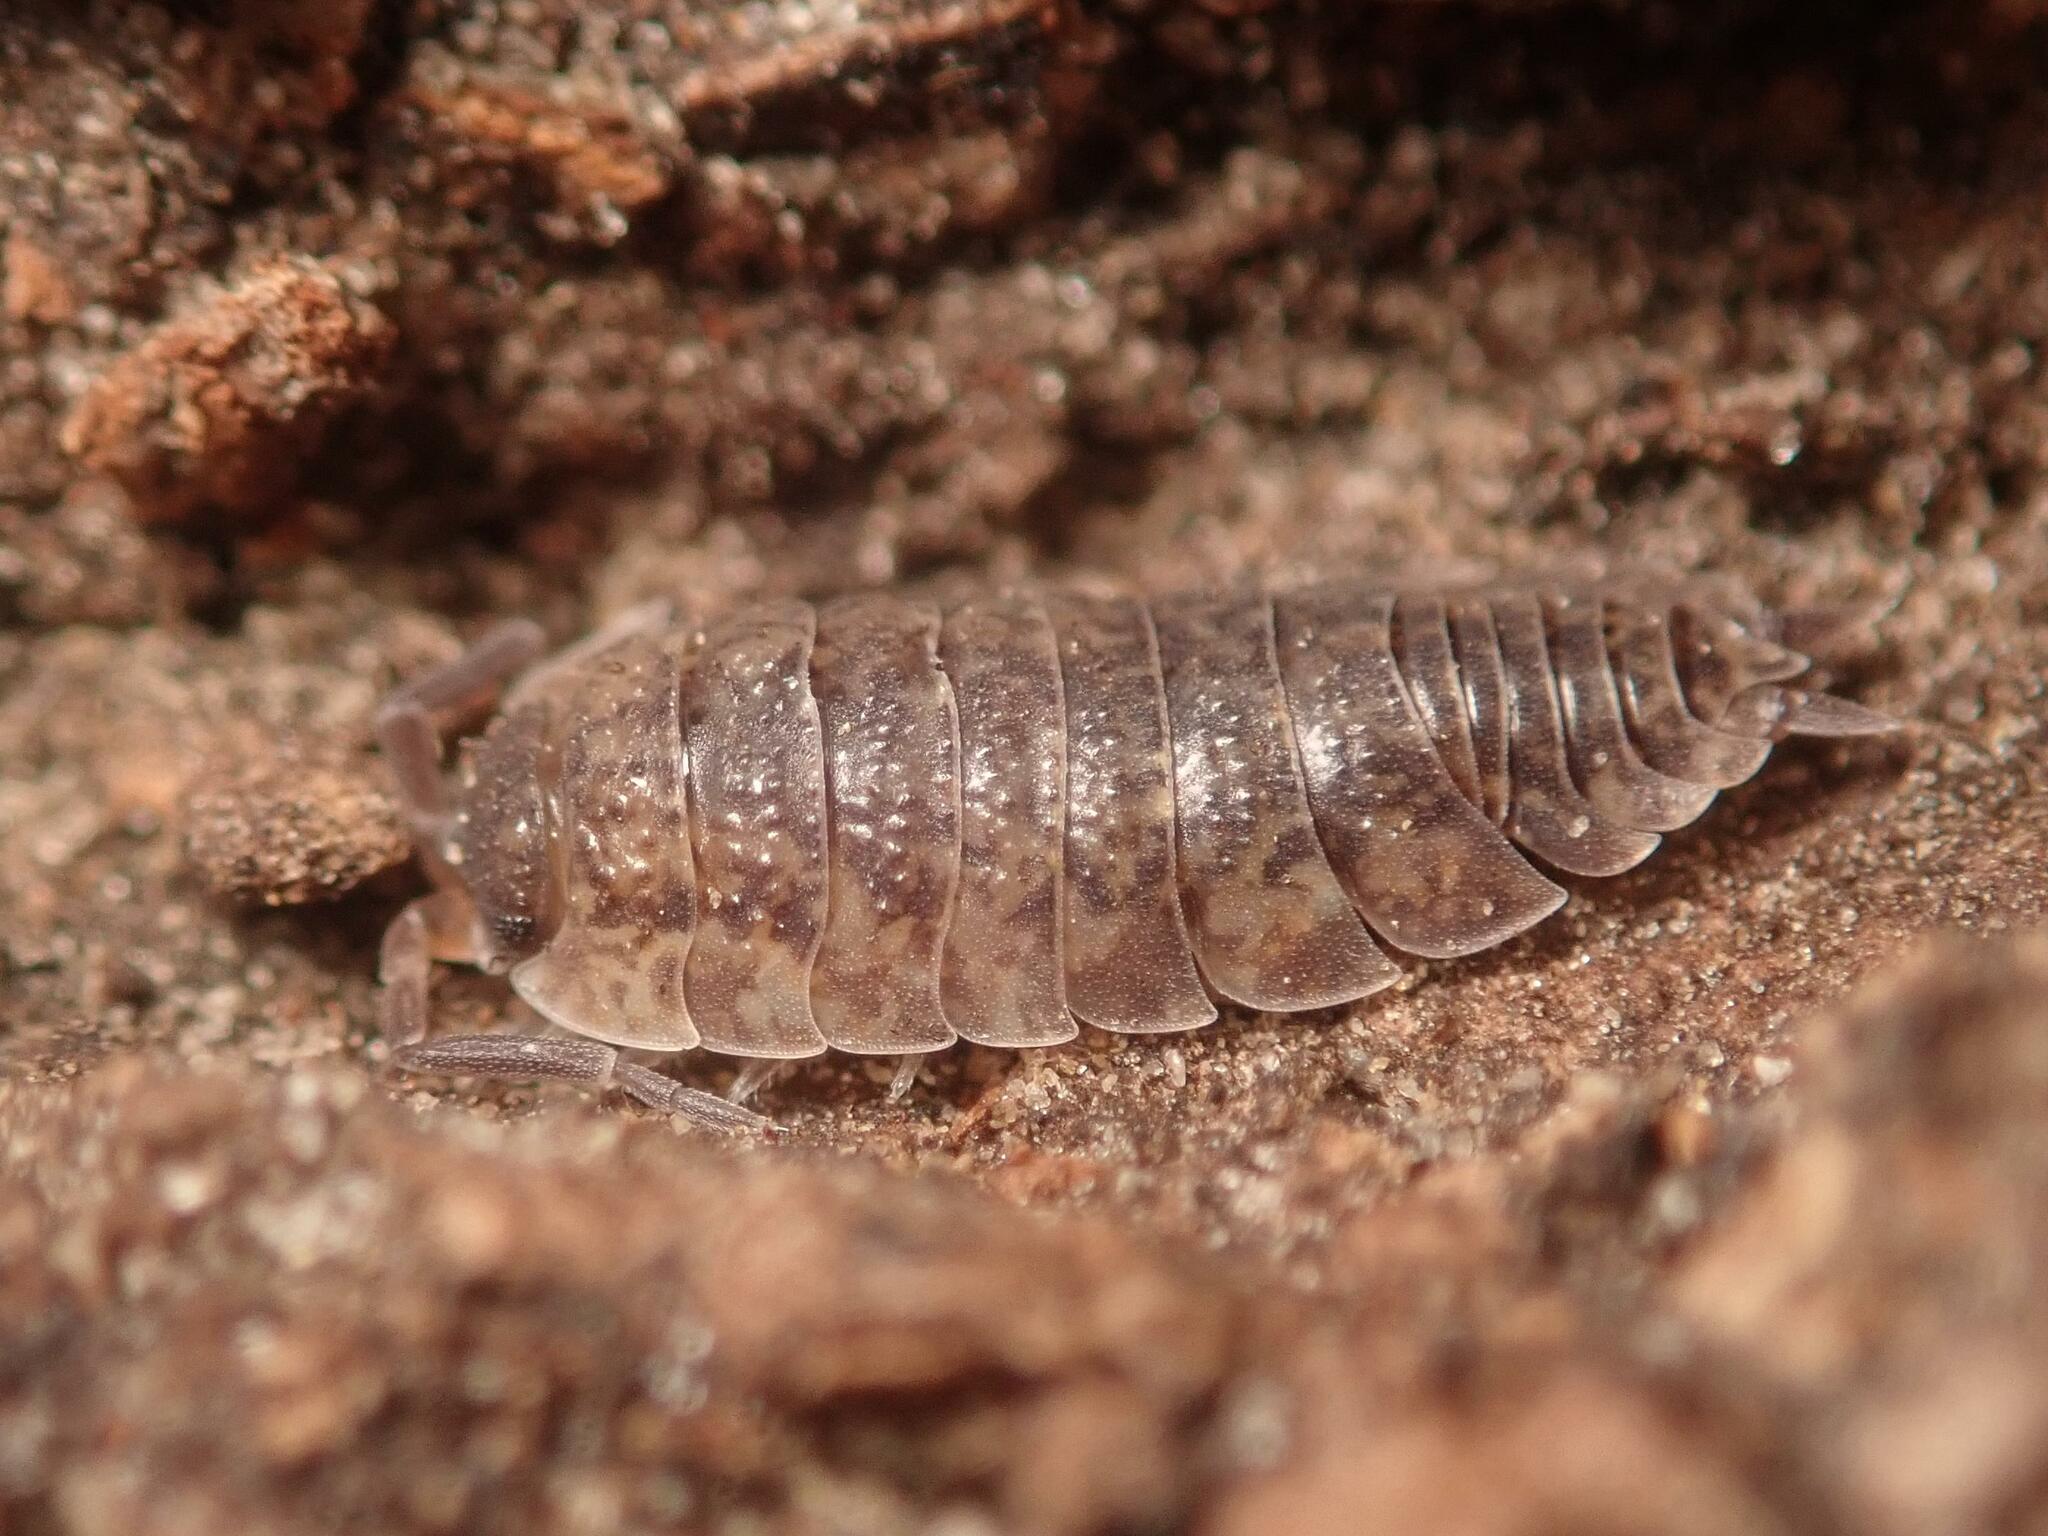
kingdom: Animalia
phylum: Arthropoda
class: Malacostraca
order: Isopoda
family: Porcellionidae
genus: Porcellio
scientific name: Porcellio scaber
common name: Common rough woodlouse
